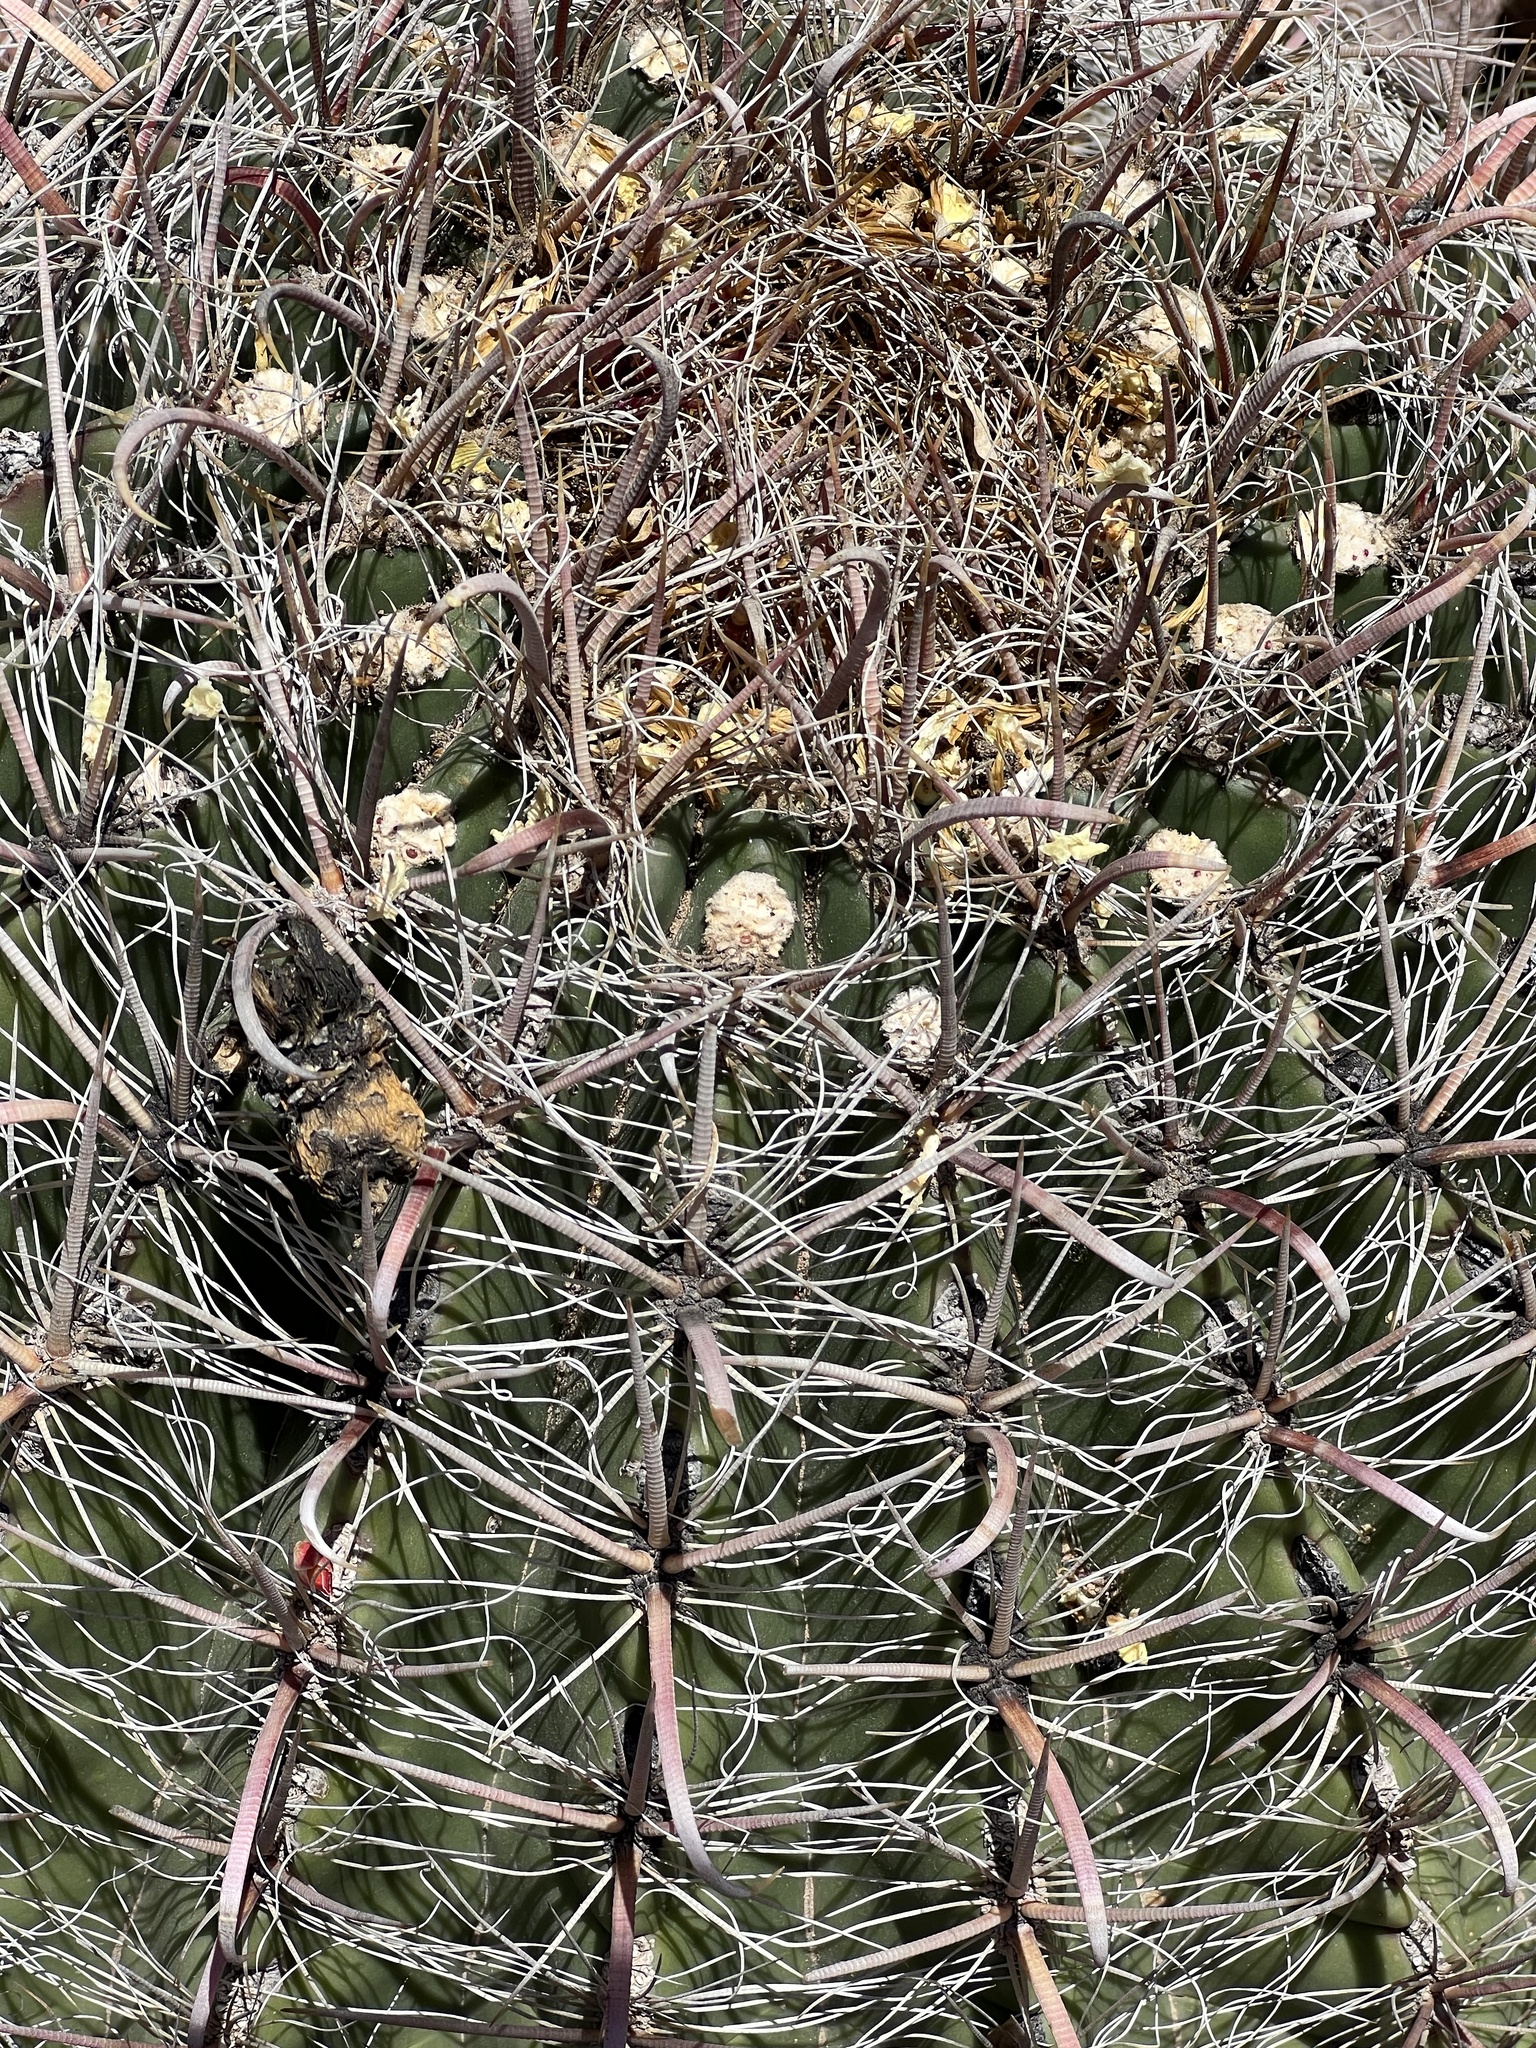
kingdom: Plantae
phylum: Tracheophyta
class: Magnoliopsida
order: Caryophyllales
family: Cactaceae
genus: Ferocactus
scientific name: Ferocactus wislizeni
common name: Candy barrel cactus
